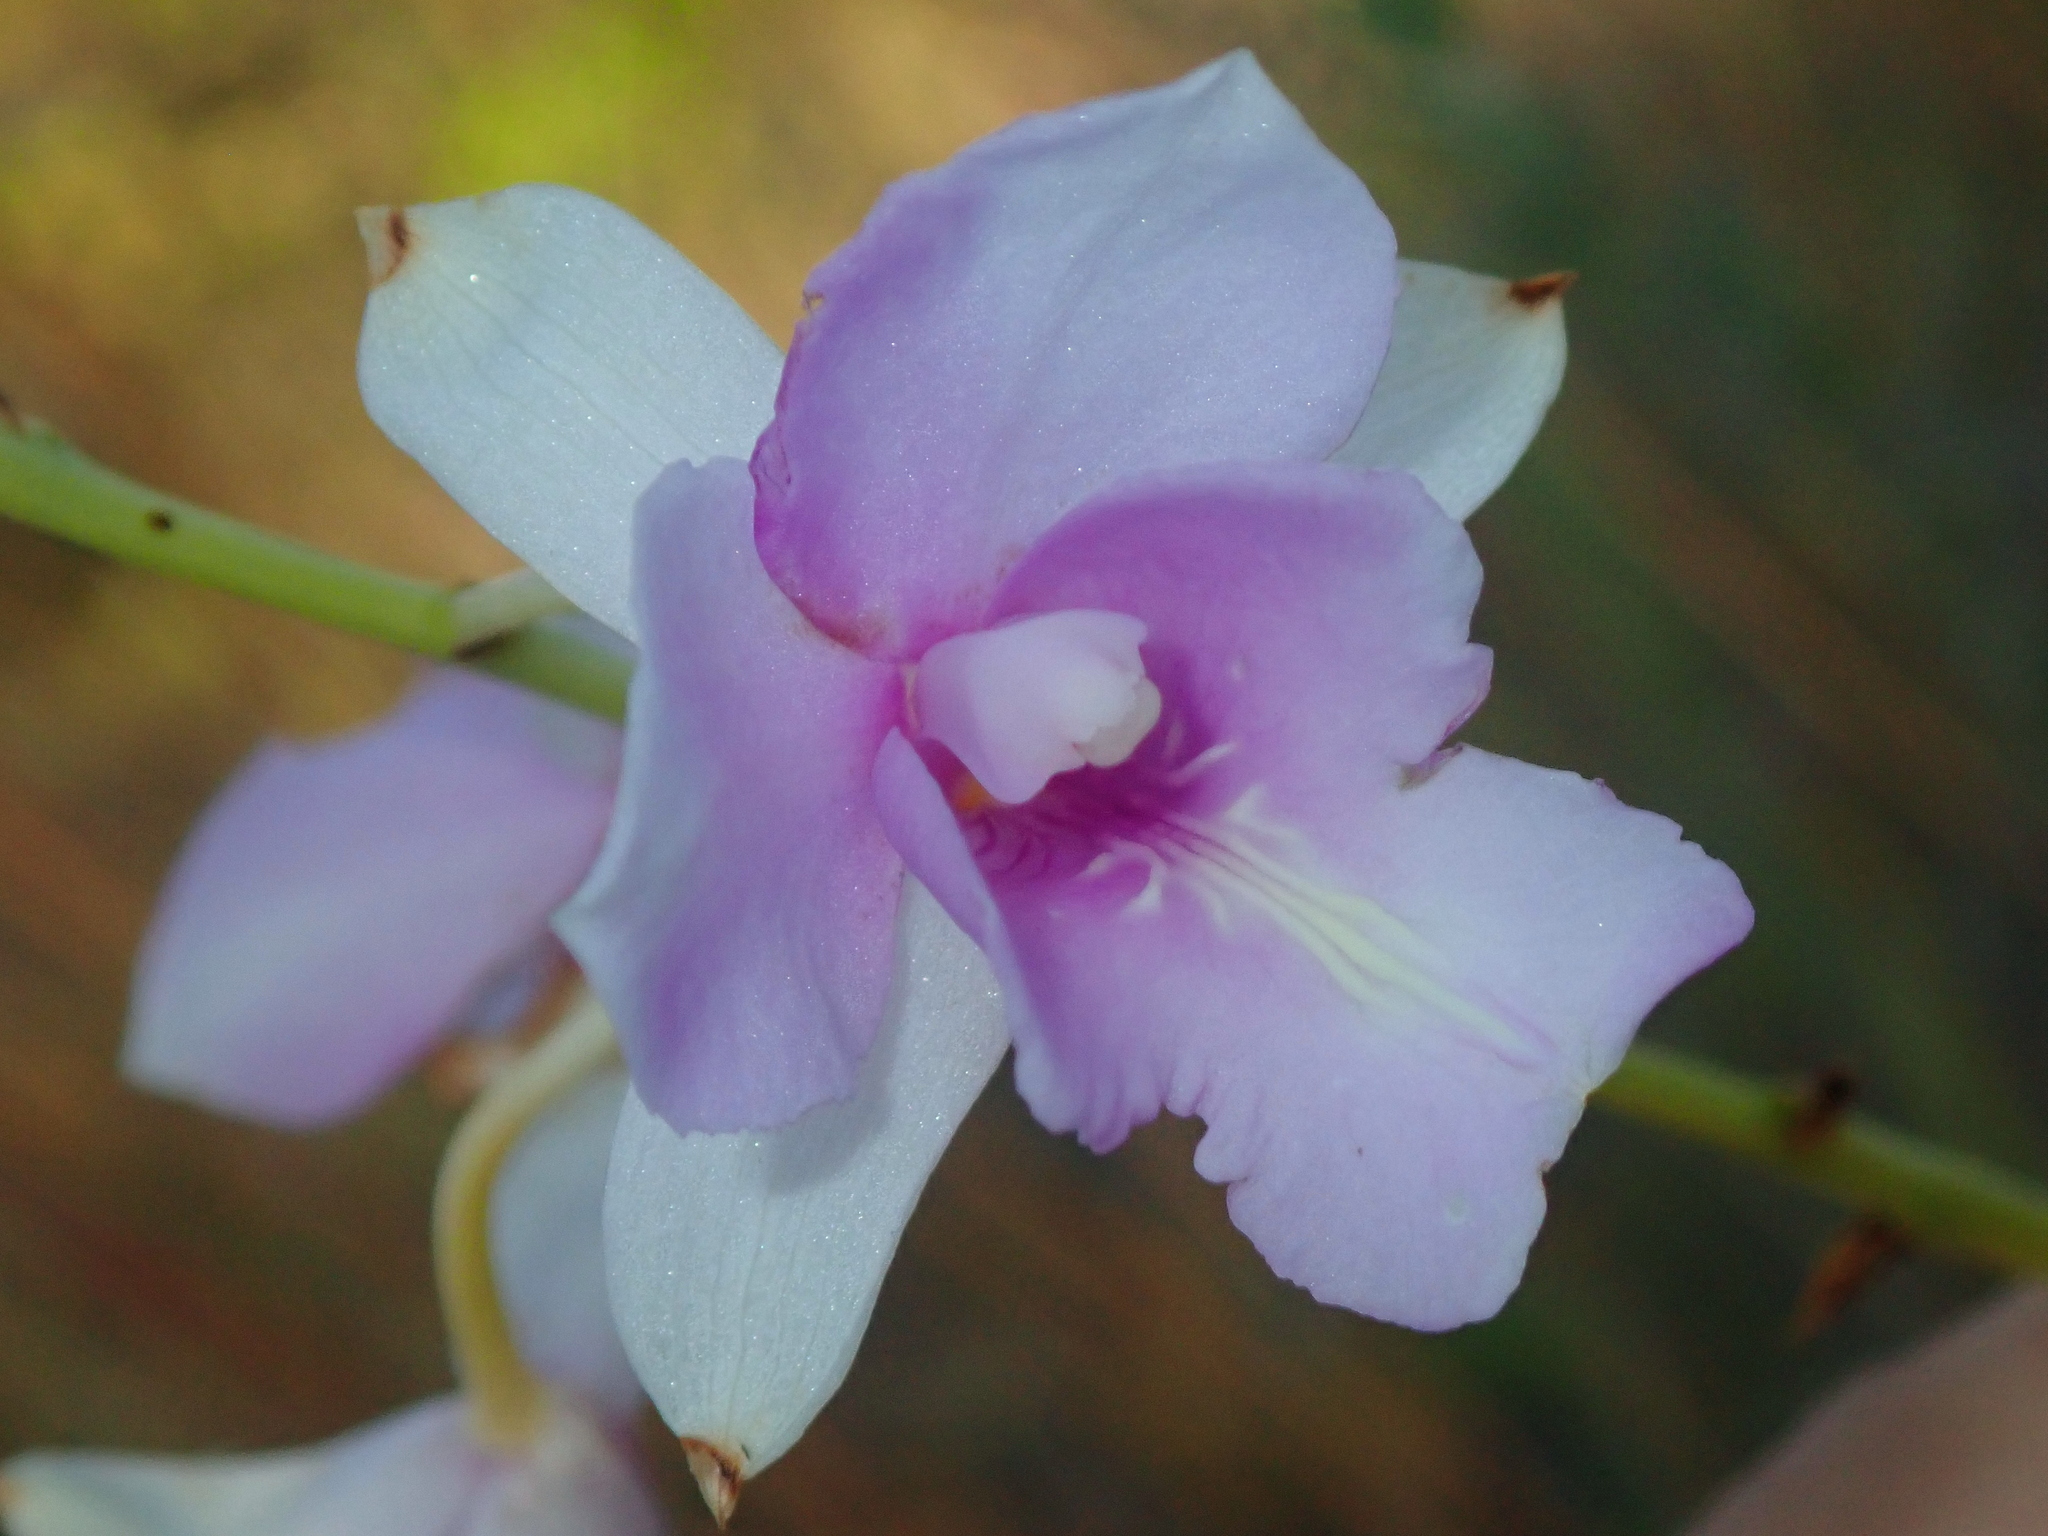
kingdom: Plantae
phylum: Tracheophyta
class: Liliopsida
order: Asparagales
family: Orchidaceae
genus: Bletia
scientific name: Bletia catenulata
